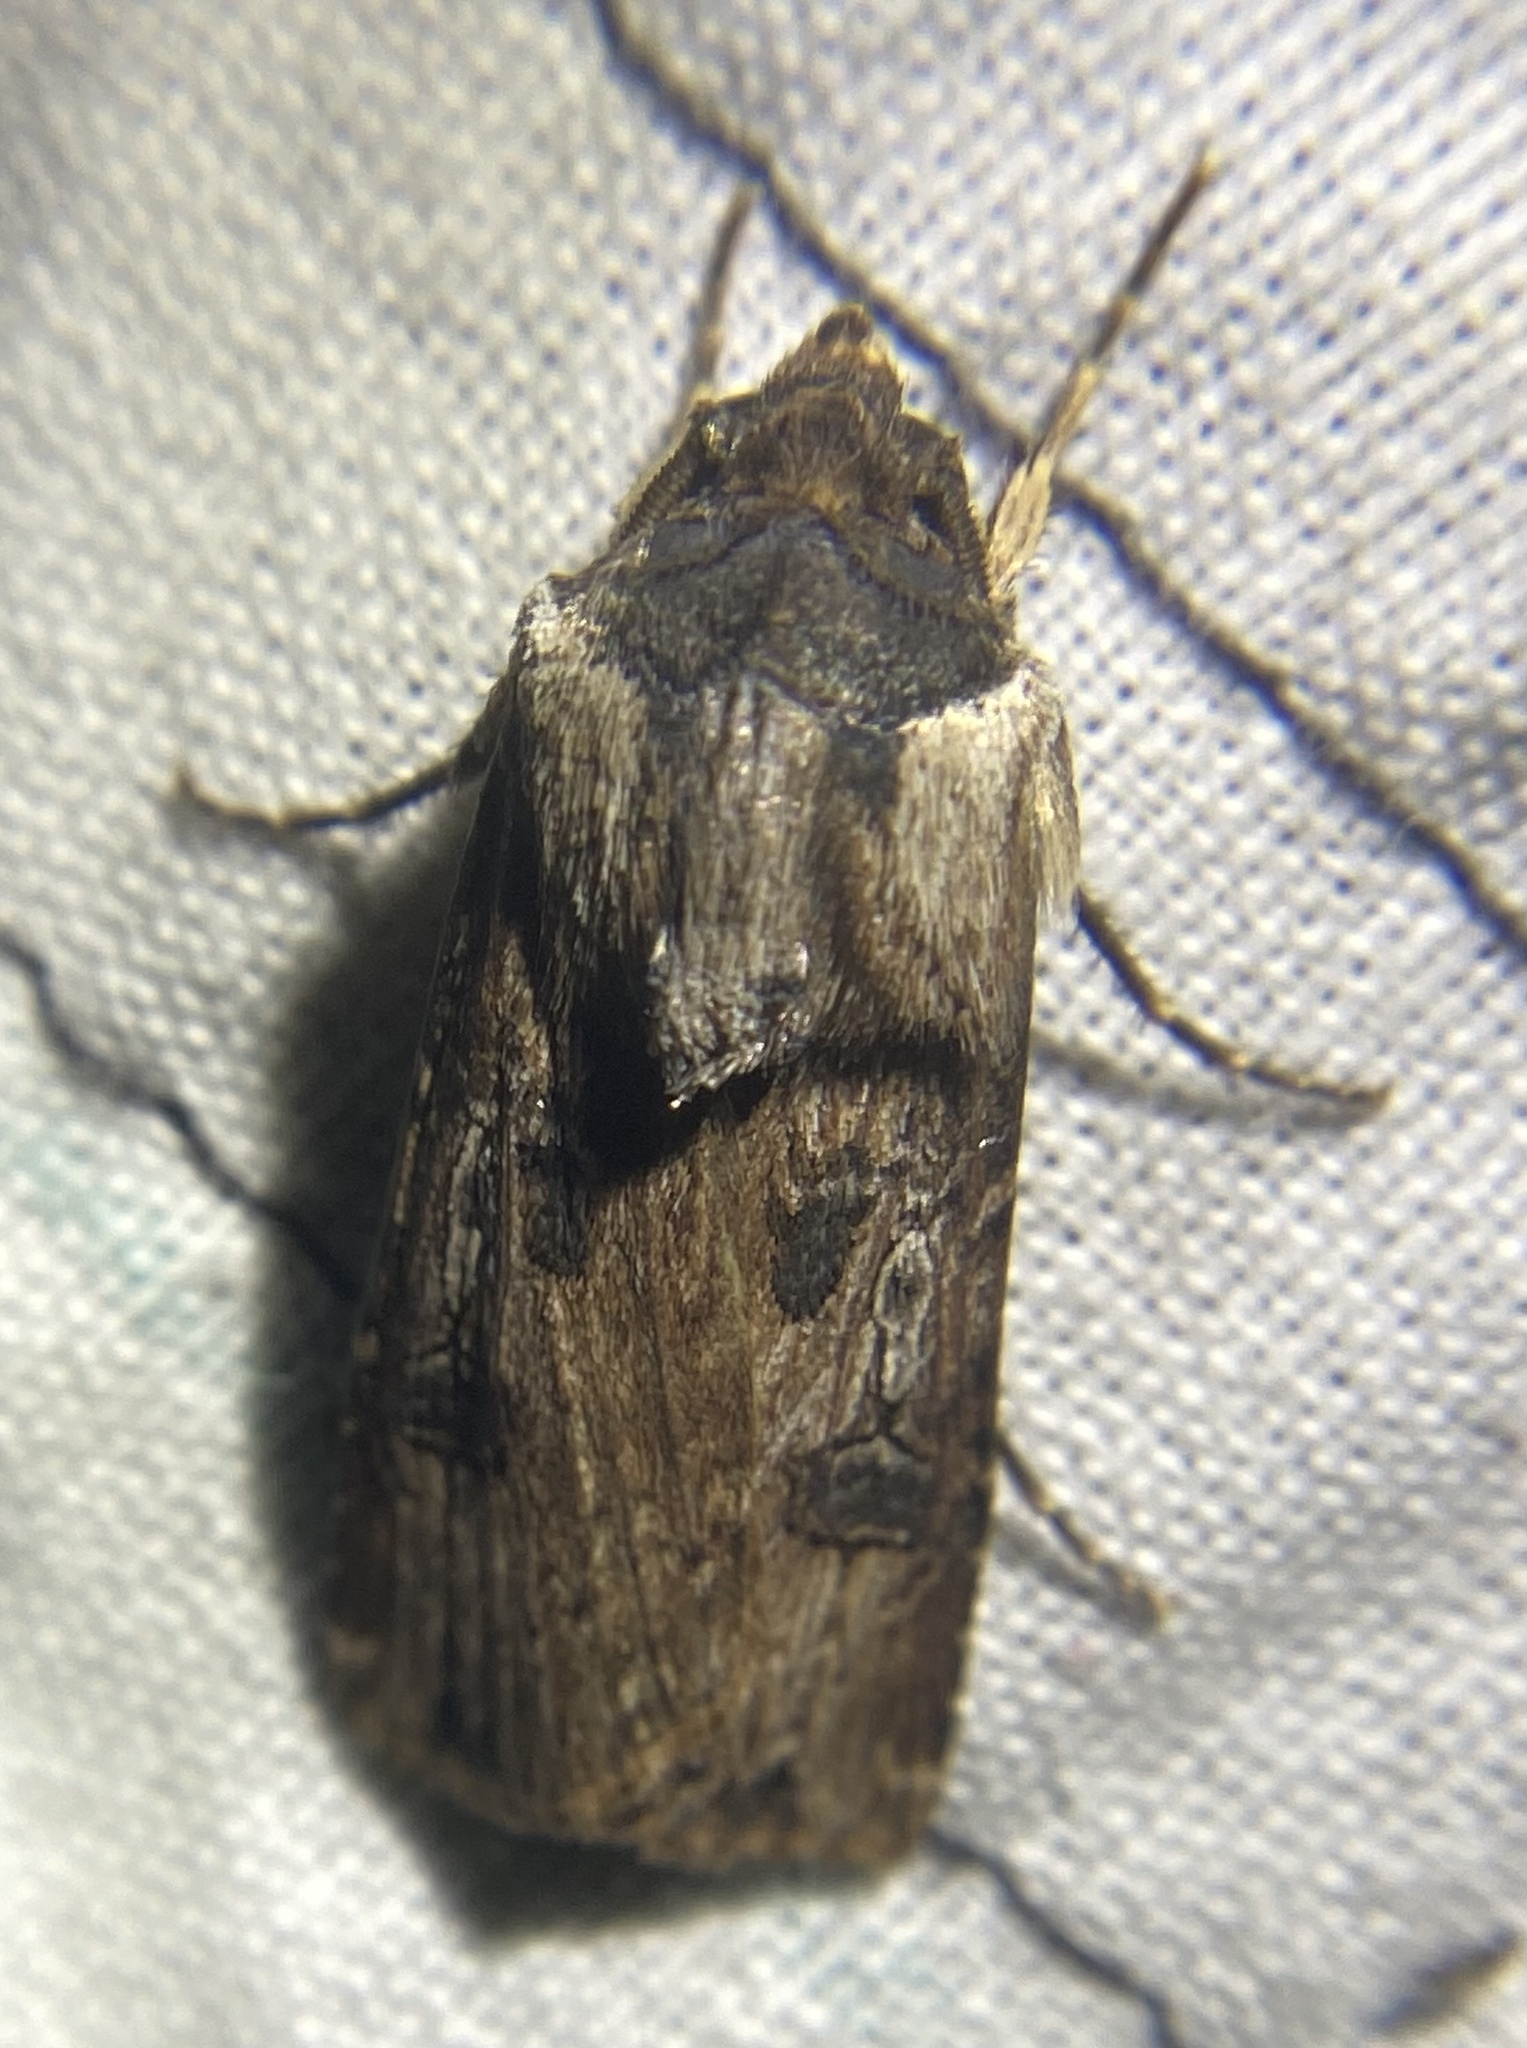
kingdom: Animalia
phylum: Arthropoda
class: Insecta
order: Lepidoptera
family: Noctuidae
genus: Agrotis
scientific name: Agrotis ipsilon
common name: Dark sword-grass
